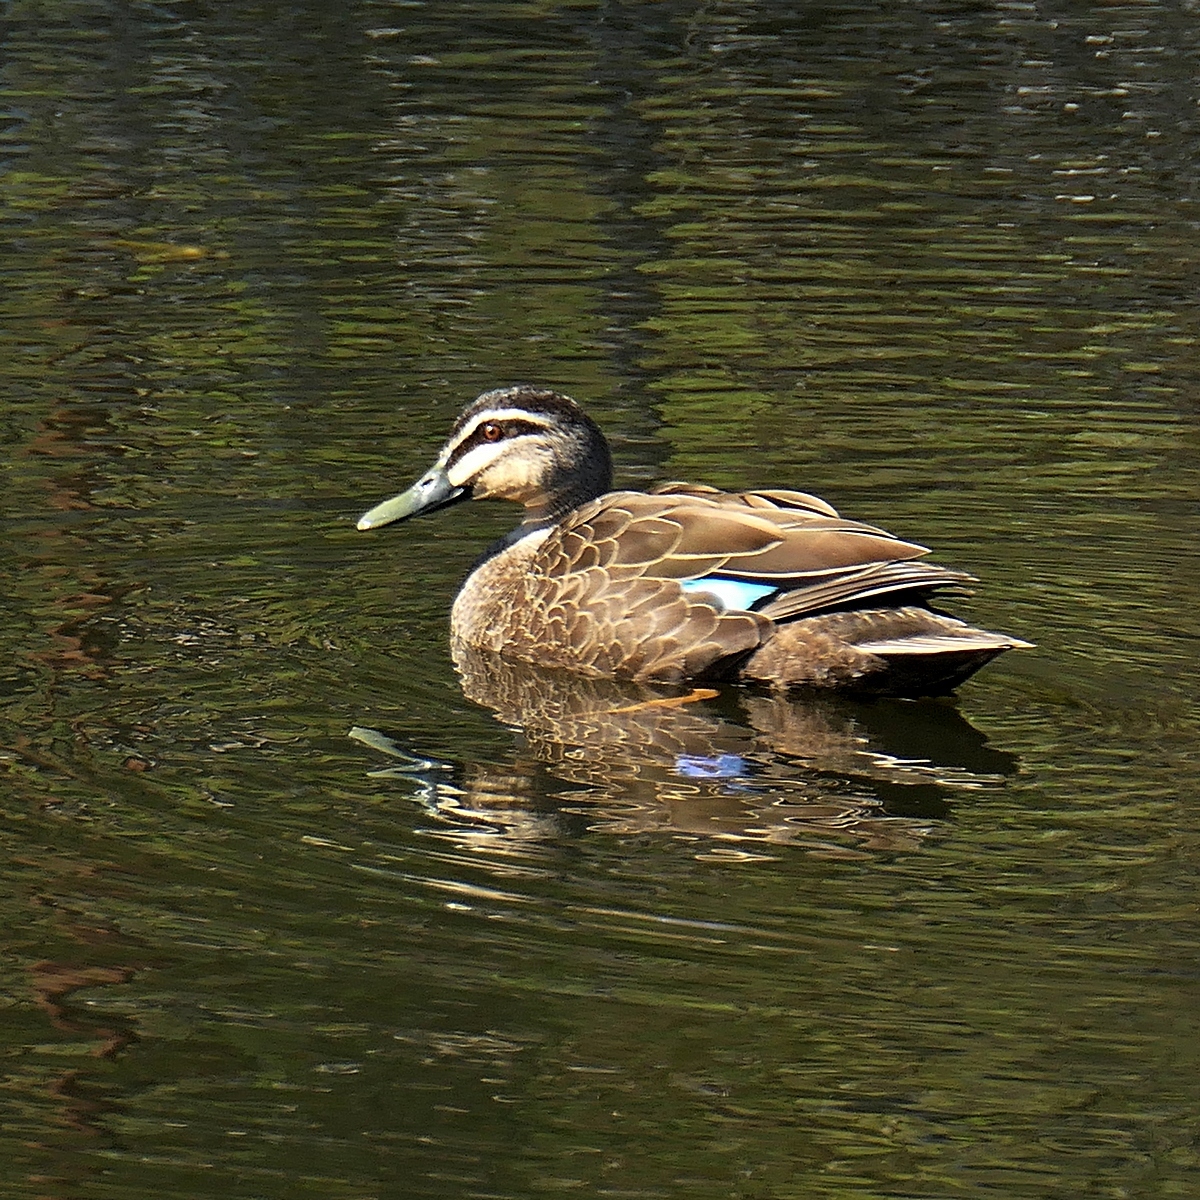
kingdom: Animalia
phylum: Chordata
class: Aves
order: Anseriformes
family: Anatidae
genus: Anas
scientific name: Anas superciliosa
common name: Pacific black duck
